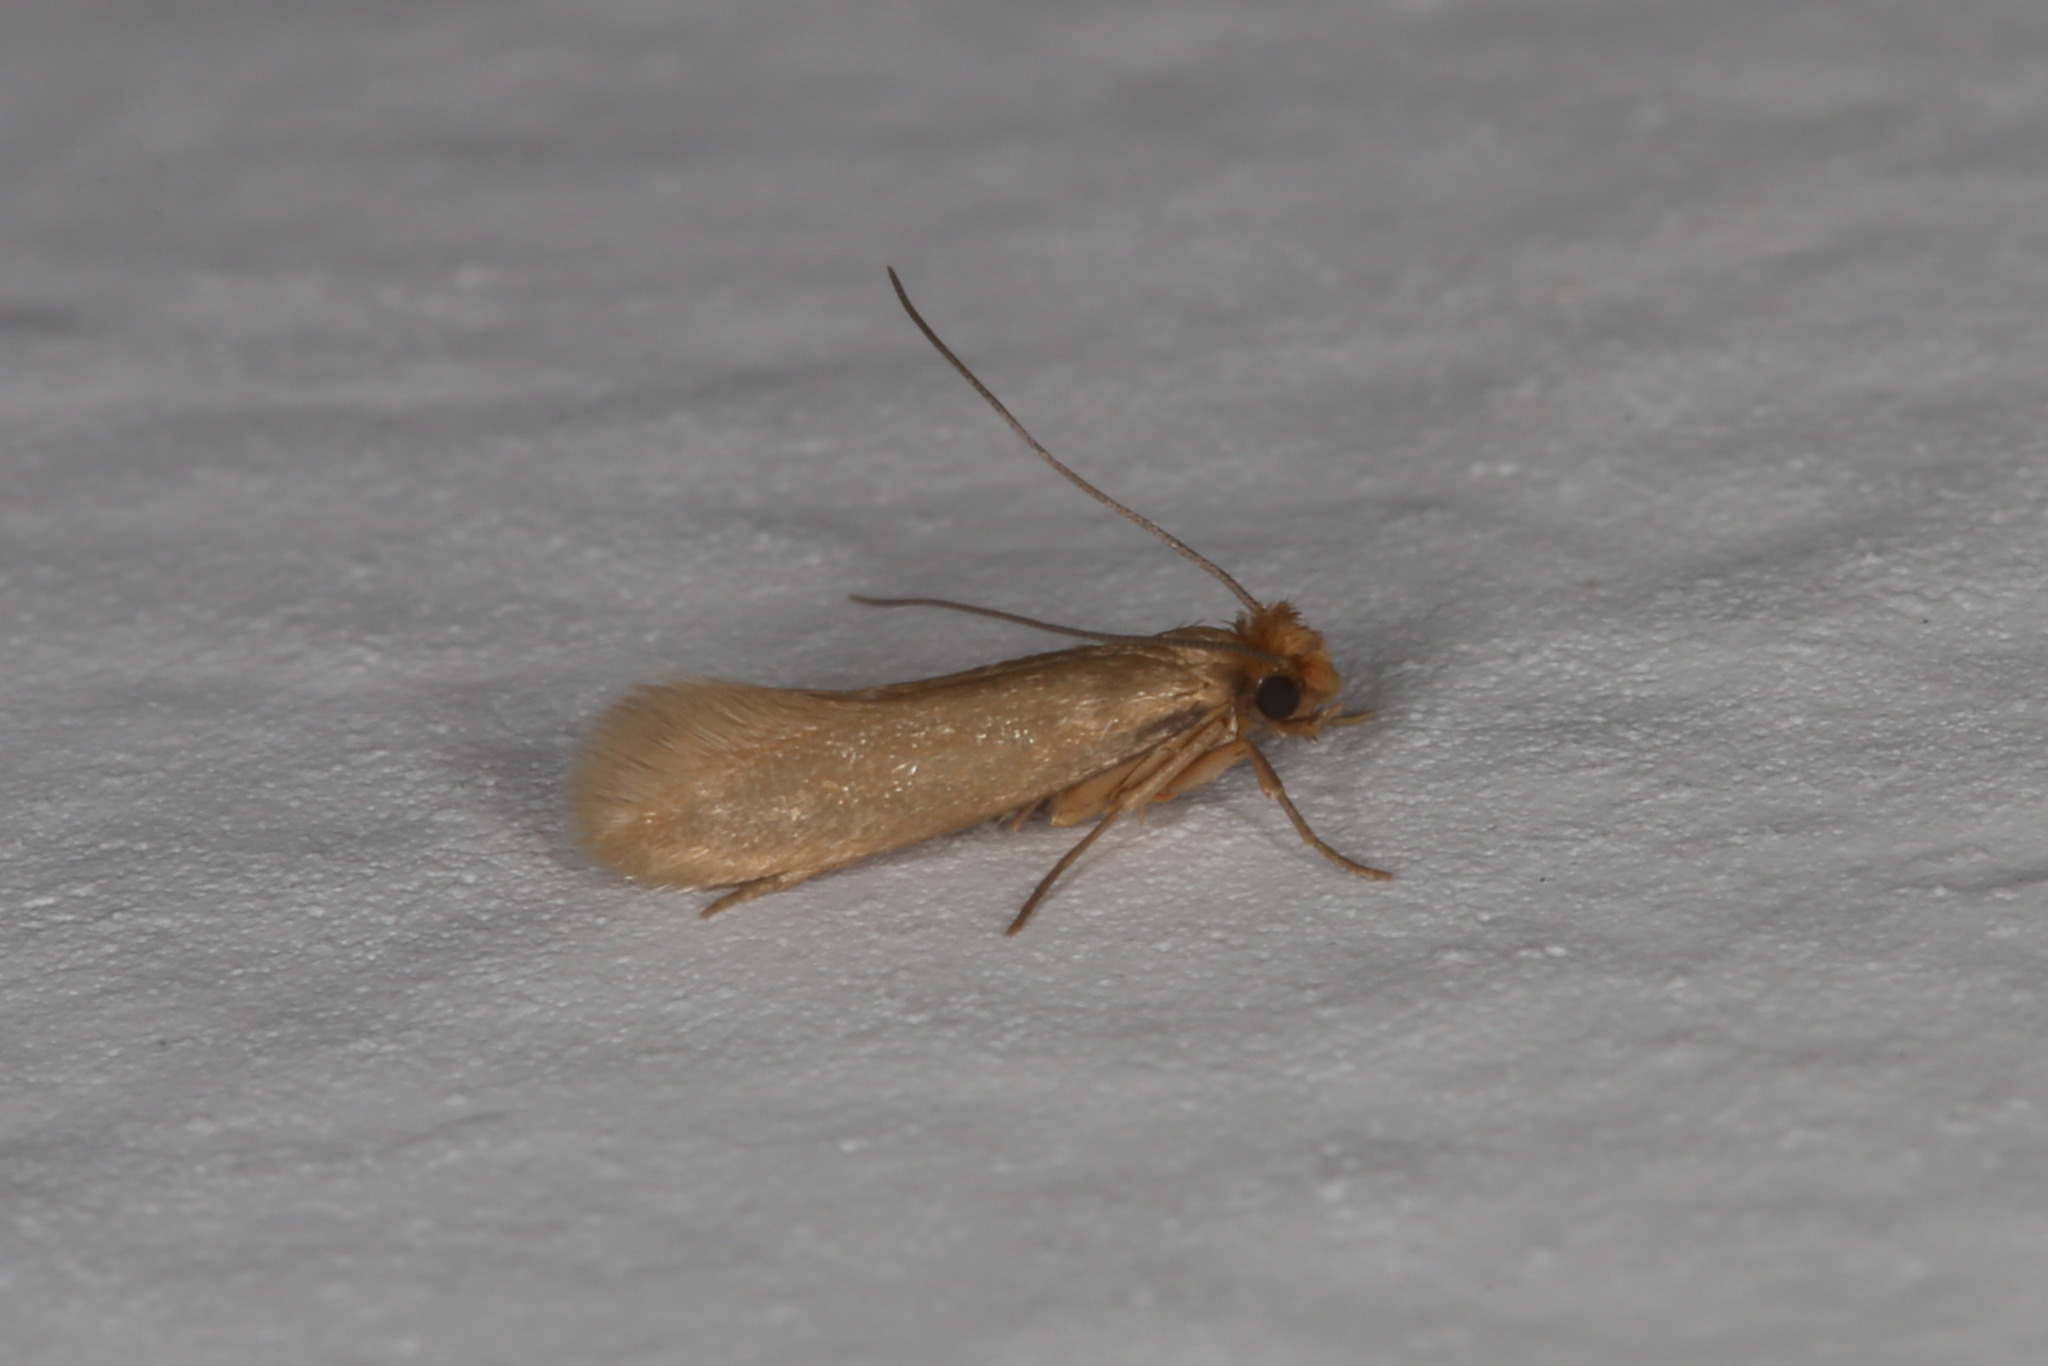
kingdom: Animalia
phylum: Arthropoda
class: Insecta
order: Lepidoptera
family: Tineidae
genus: Tineola
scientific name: Tineola bisselliella
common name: Webbing clothes moth
